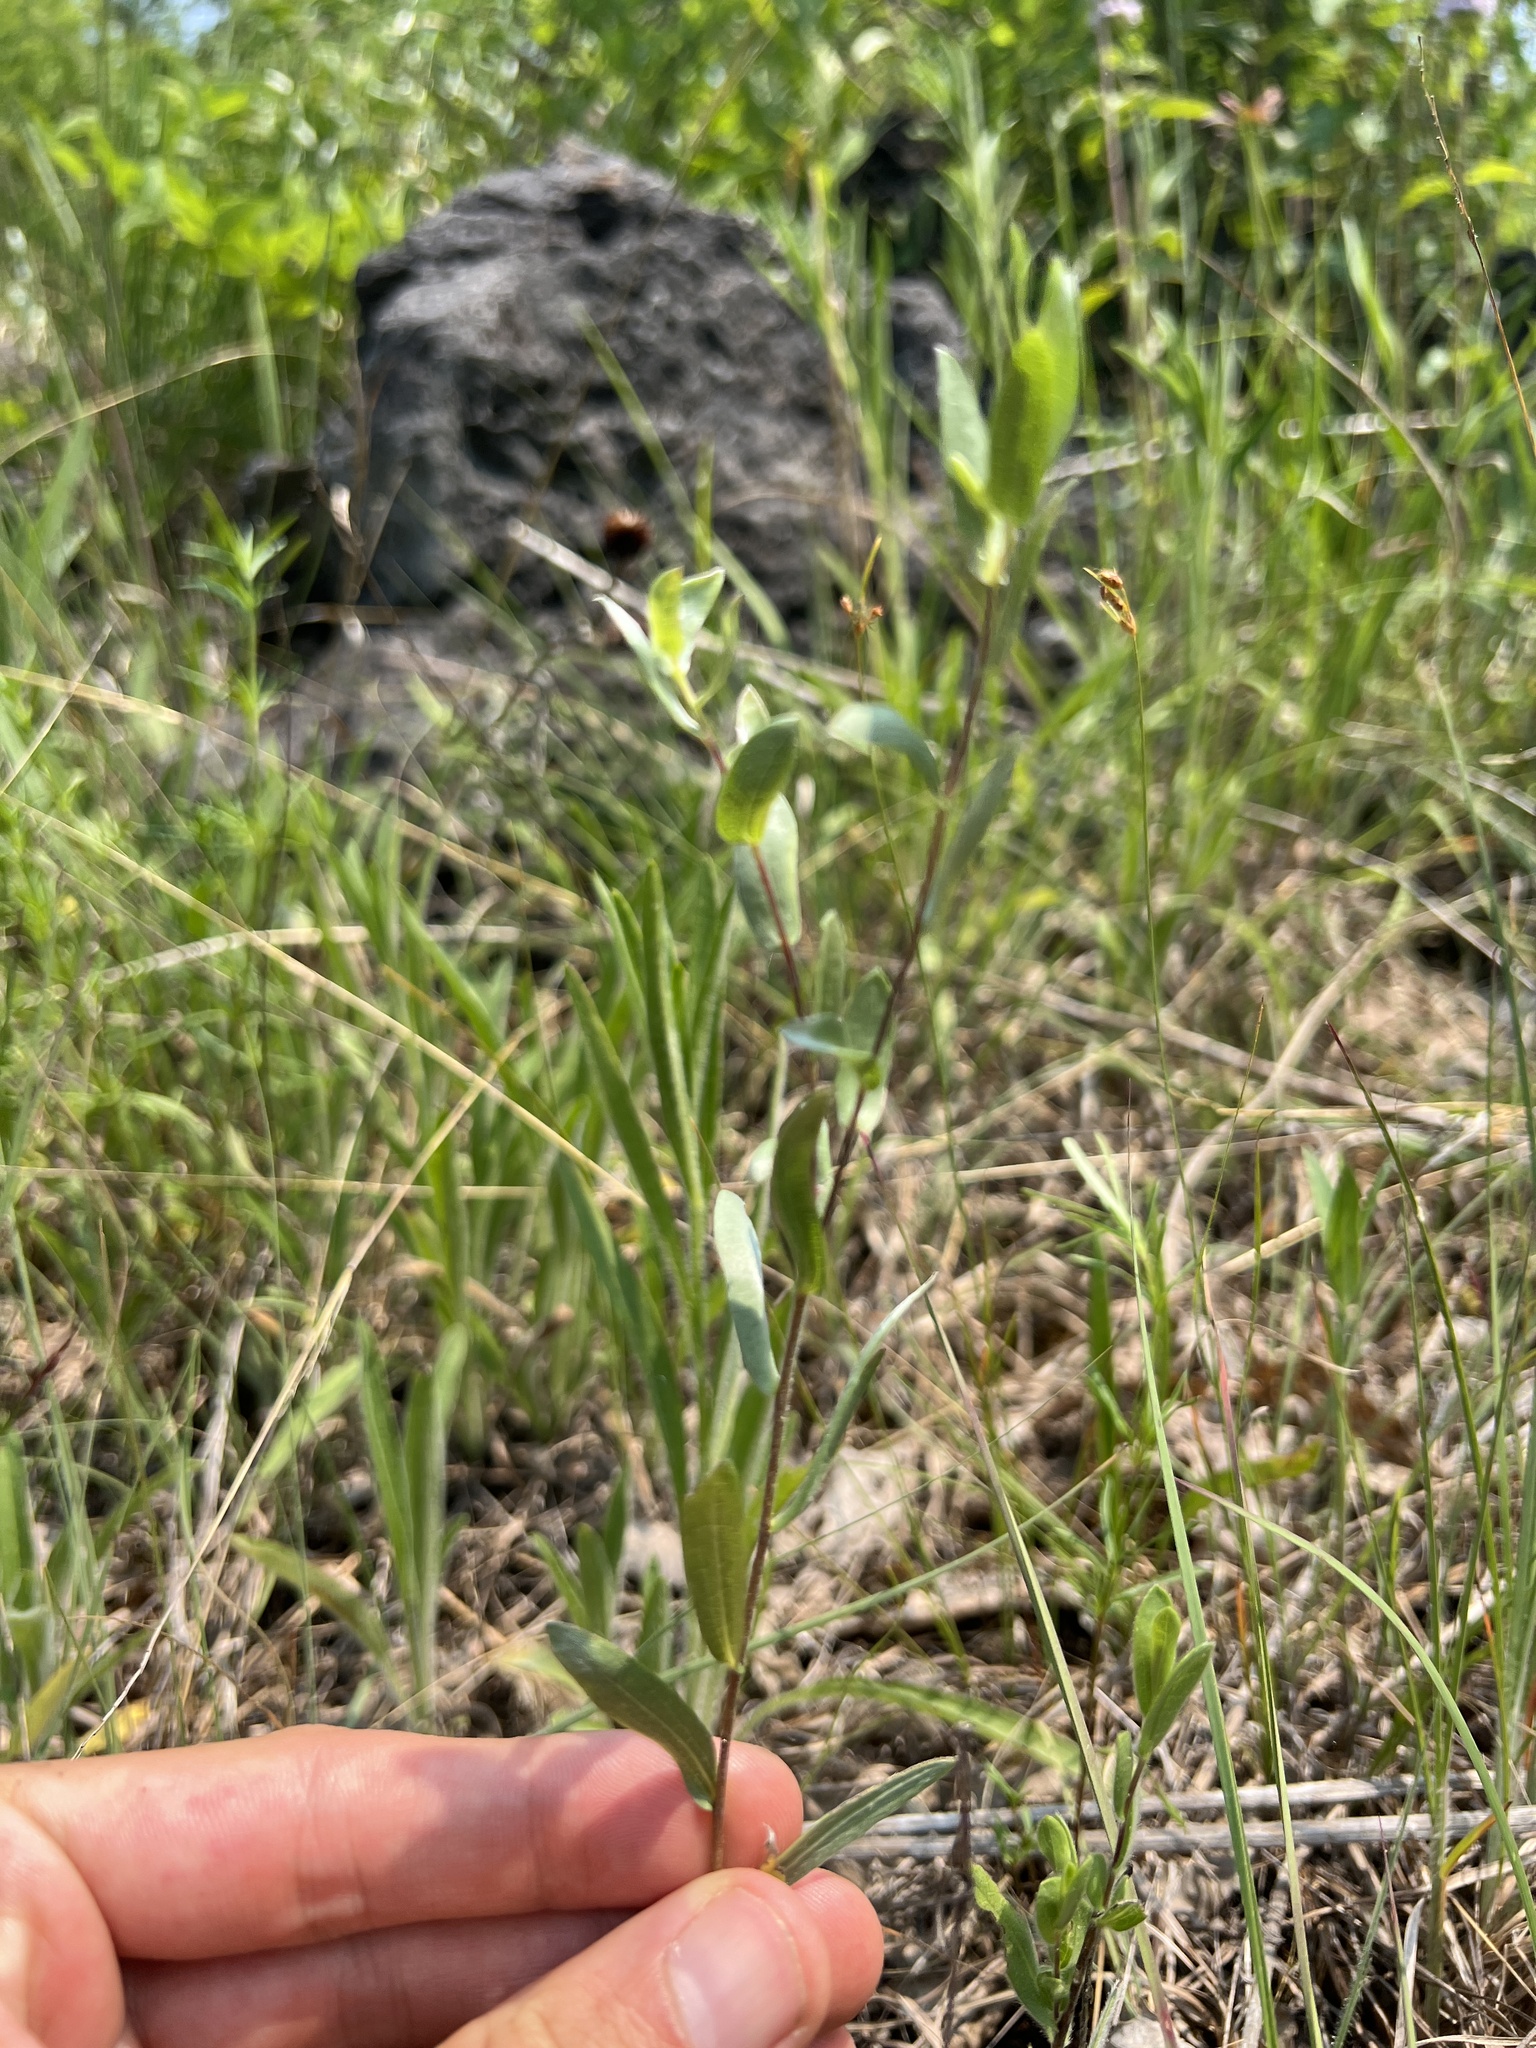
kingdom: Plantae
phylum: Tracheophyta
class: Magnoliopsida
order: Asterales
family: Asteraceae
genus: Symphyotrichum
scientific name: Symphyotrichum sericeum
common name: Silky aster
